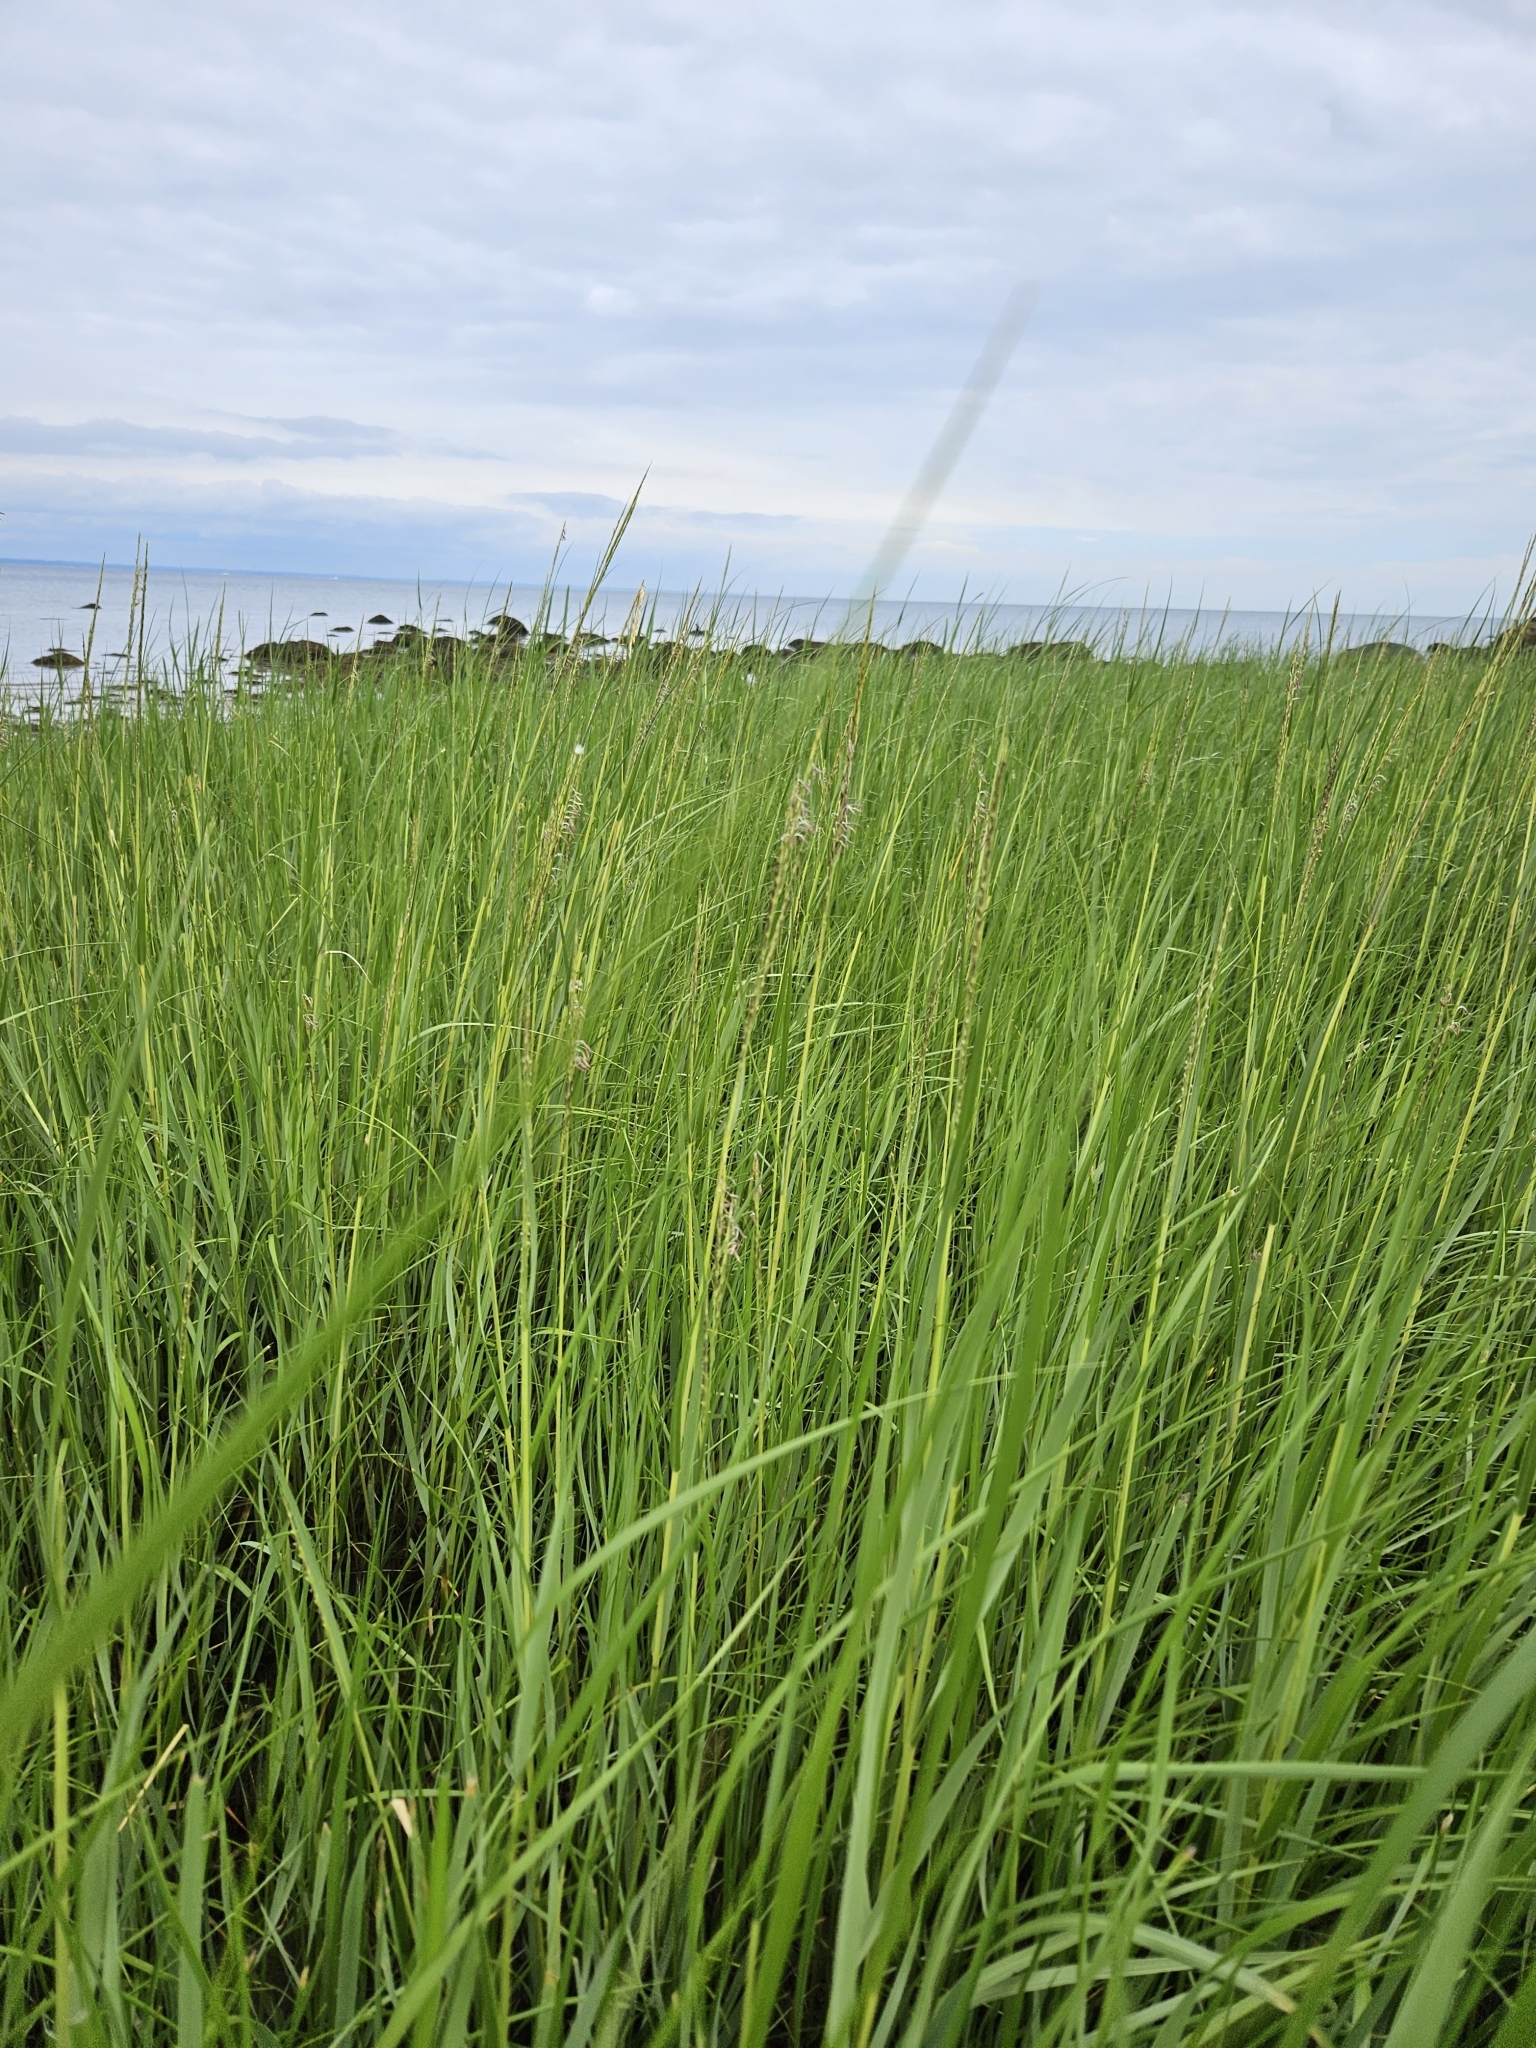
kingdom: Plantae
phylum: Tracheophyta
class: Liliopsida
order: Poales
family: Poaceae
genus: Sporobolus
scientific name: Sporobolus alterniflorus
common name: Atlantic cordgrass
